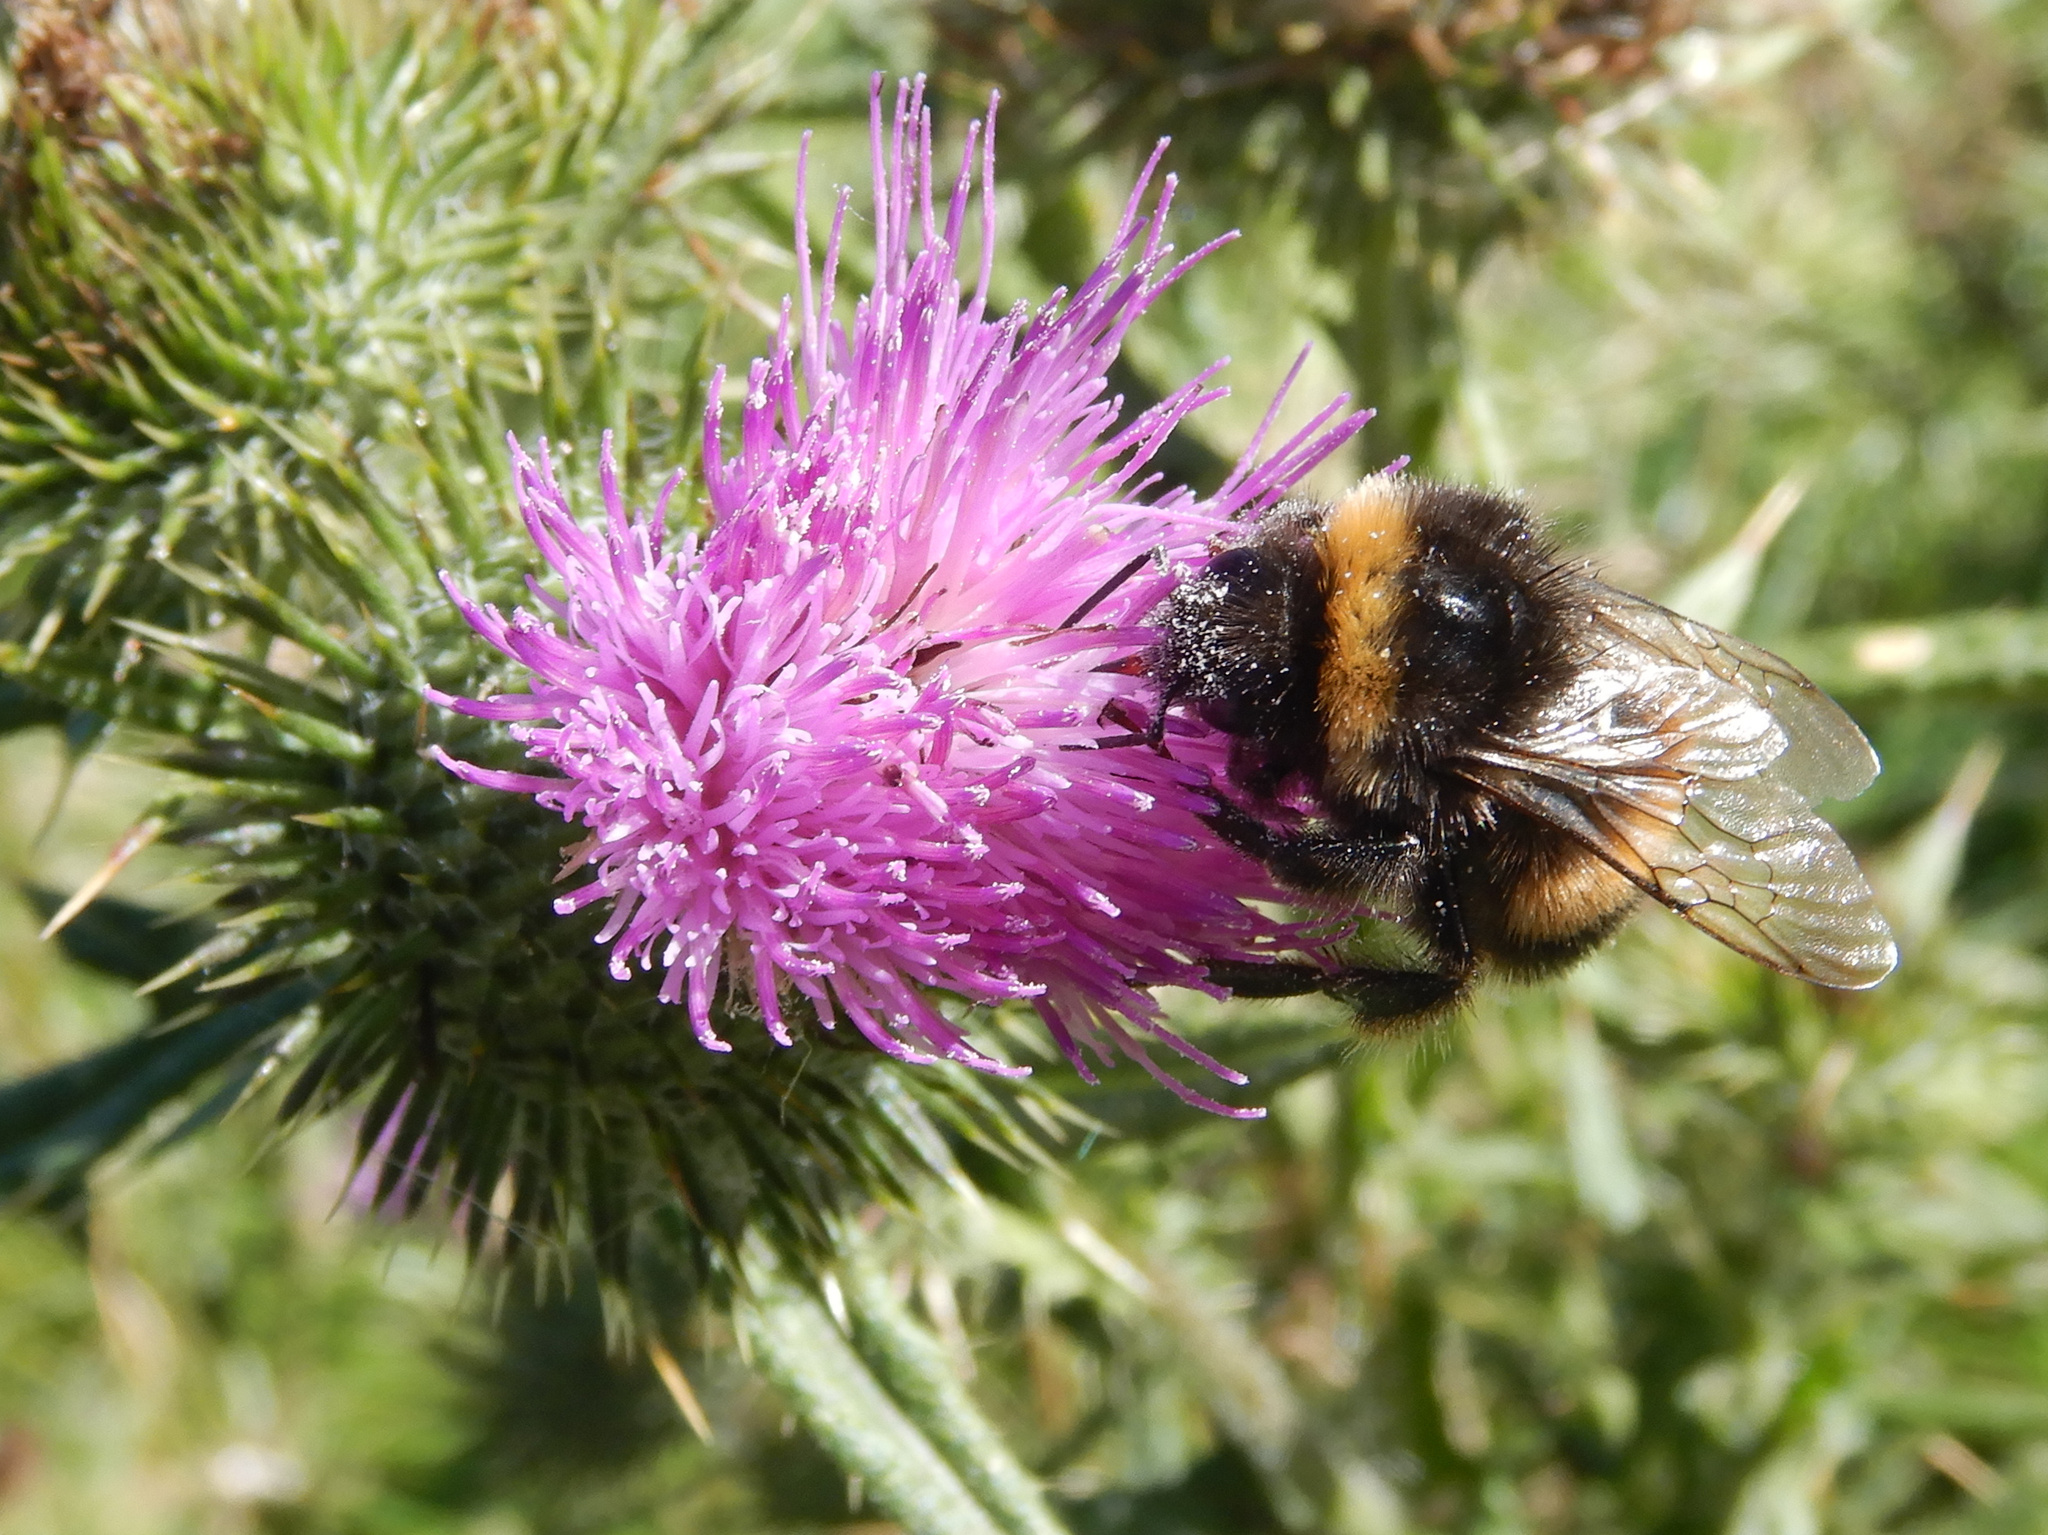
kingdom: Animalia
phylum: Arthropoda
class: Insecta
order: Hymenoptera
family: Apidae
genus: Bombus
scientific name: Bombus terrestris
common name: Buff-tailed bumblebee
